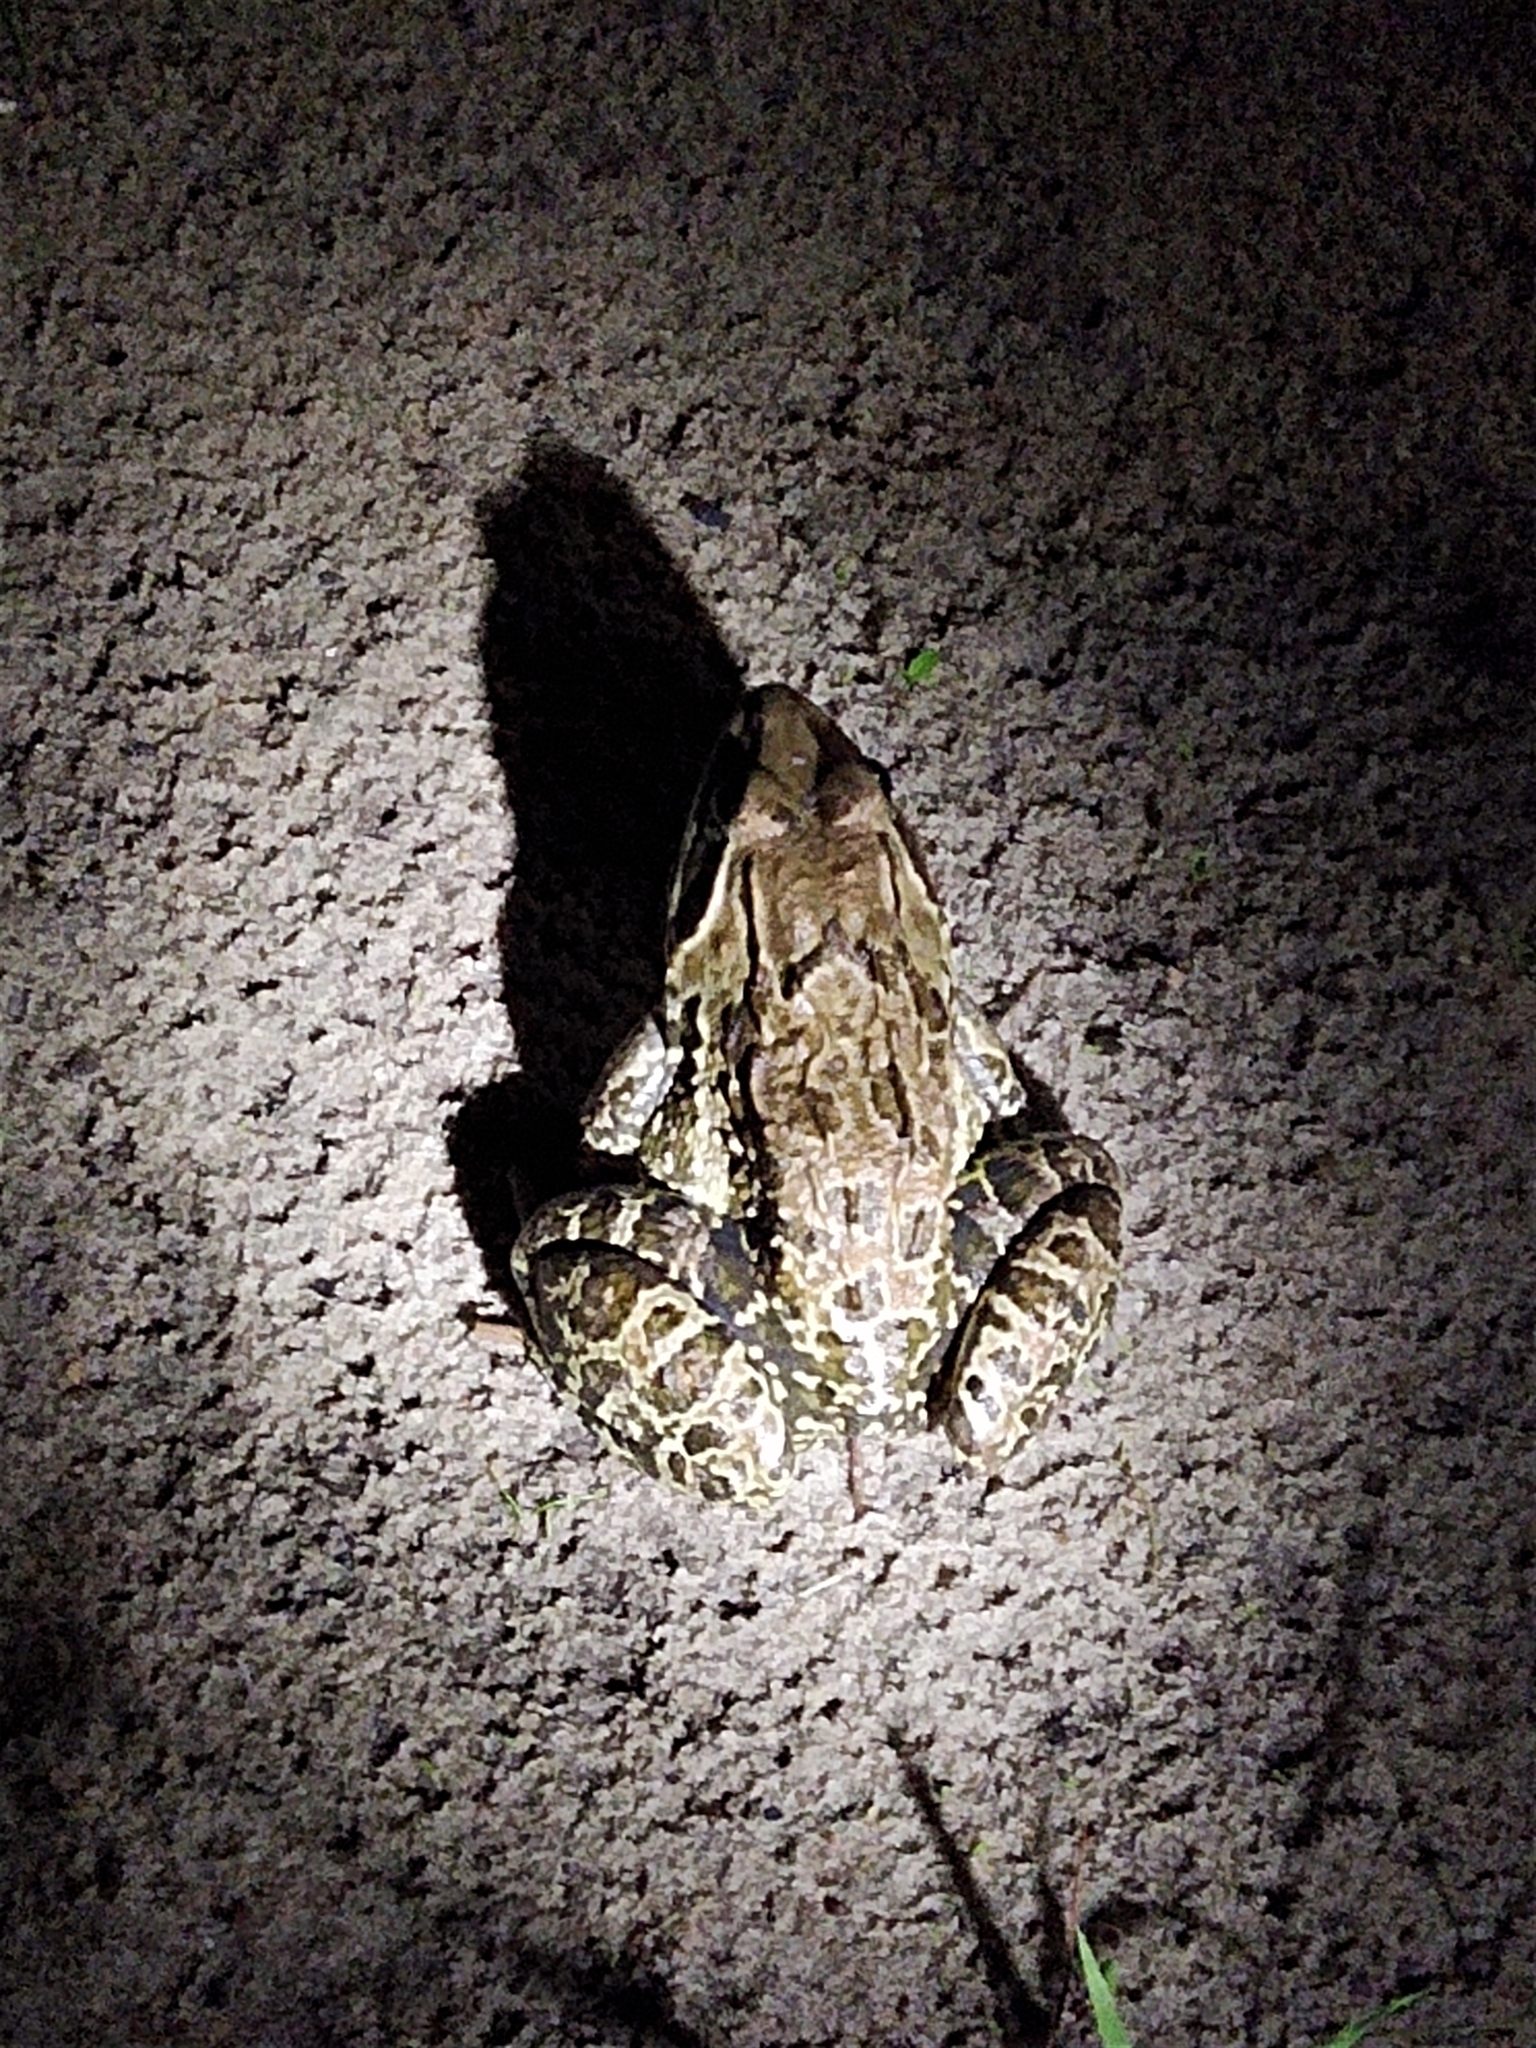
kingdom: Animalia
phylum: Chordata
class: Amphibia
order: Anura
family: Dicroglossidae
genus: Hoplobatrachus
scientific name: Hoplobatrachus tigerinus
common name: Indian bullfrog
